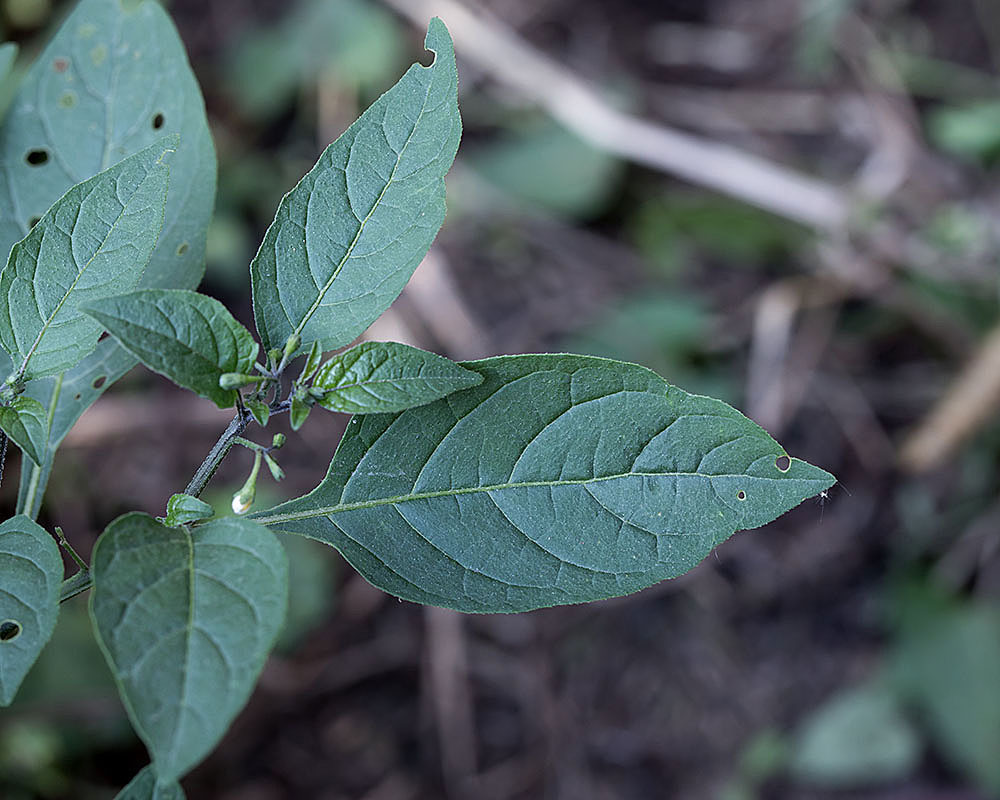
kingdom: Plantae
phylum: Tracheophyta
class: Magnoliopsida
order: Solanales
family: Solanaceae
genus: Solanum
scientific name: Solanum emulans
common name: Eastern black nightshade
